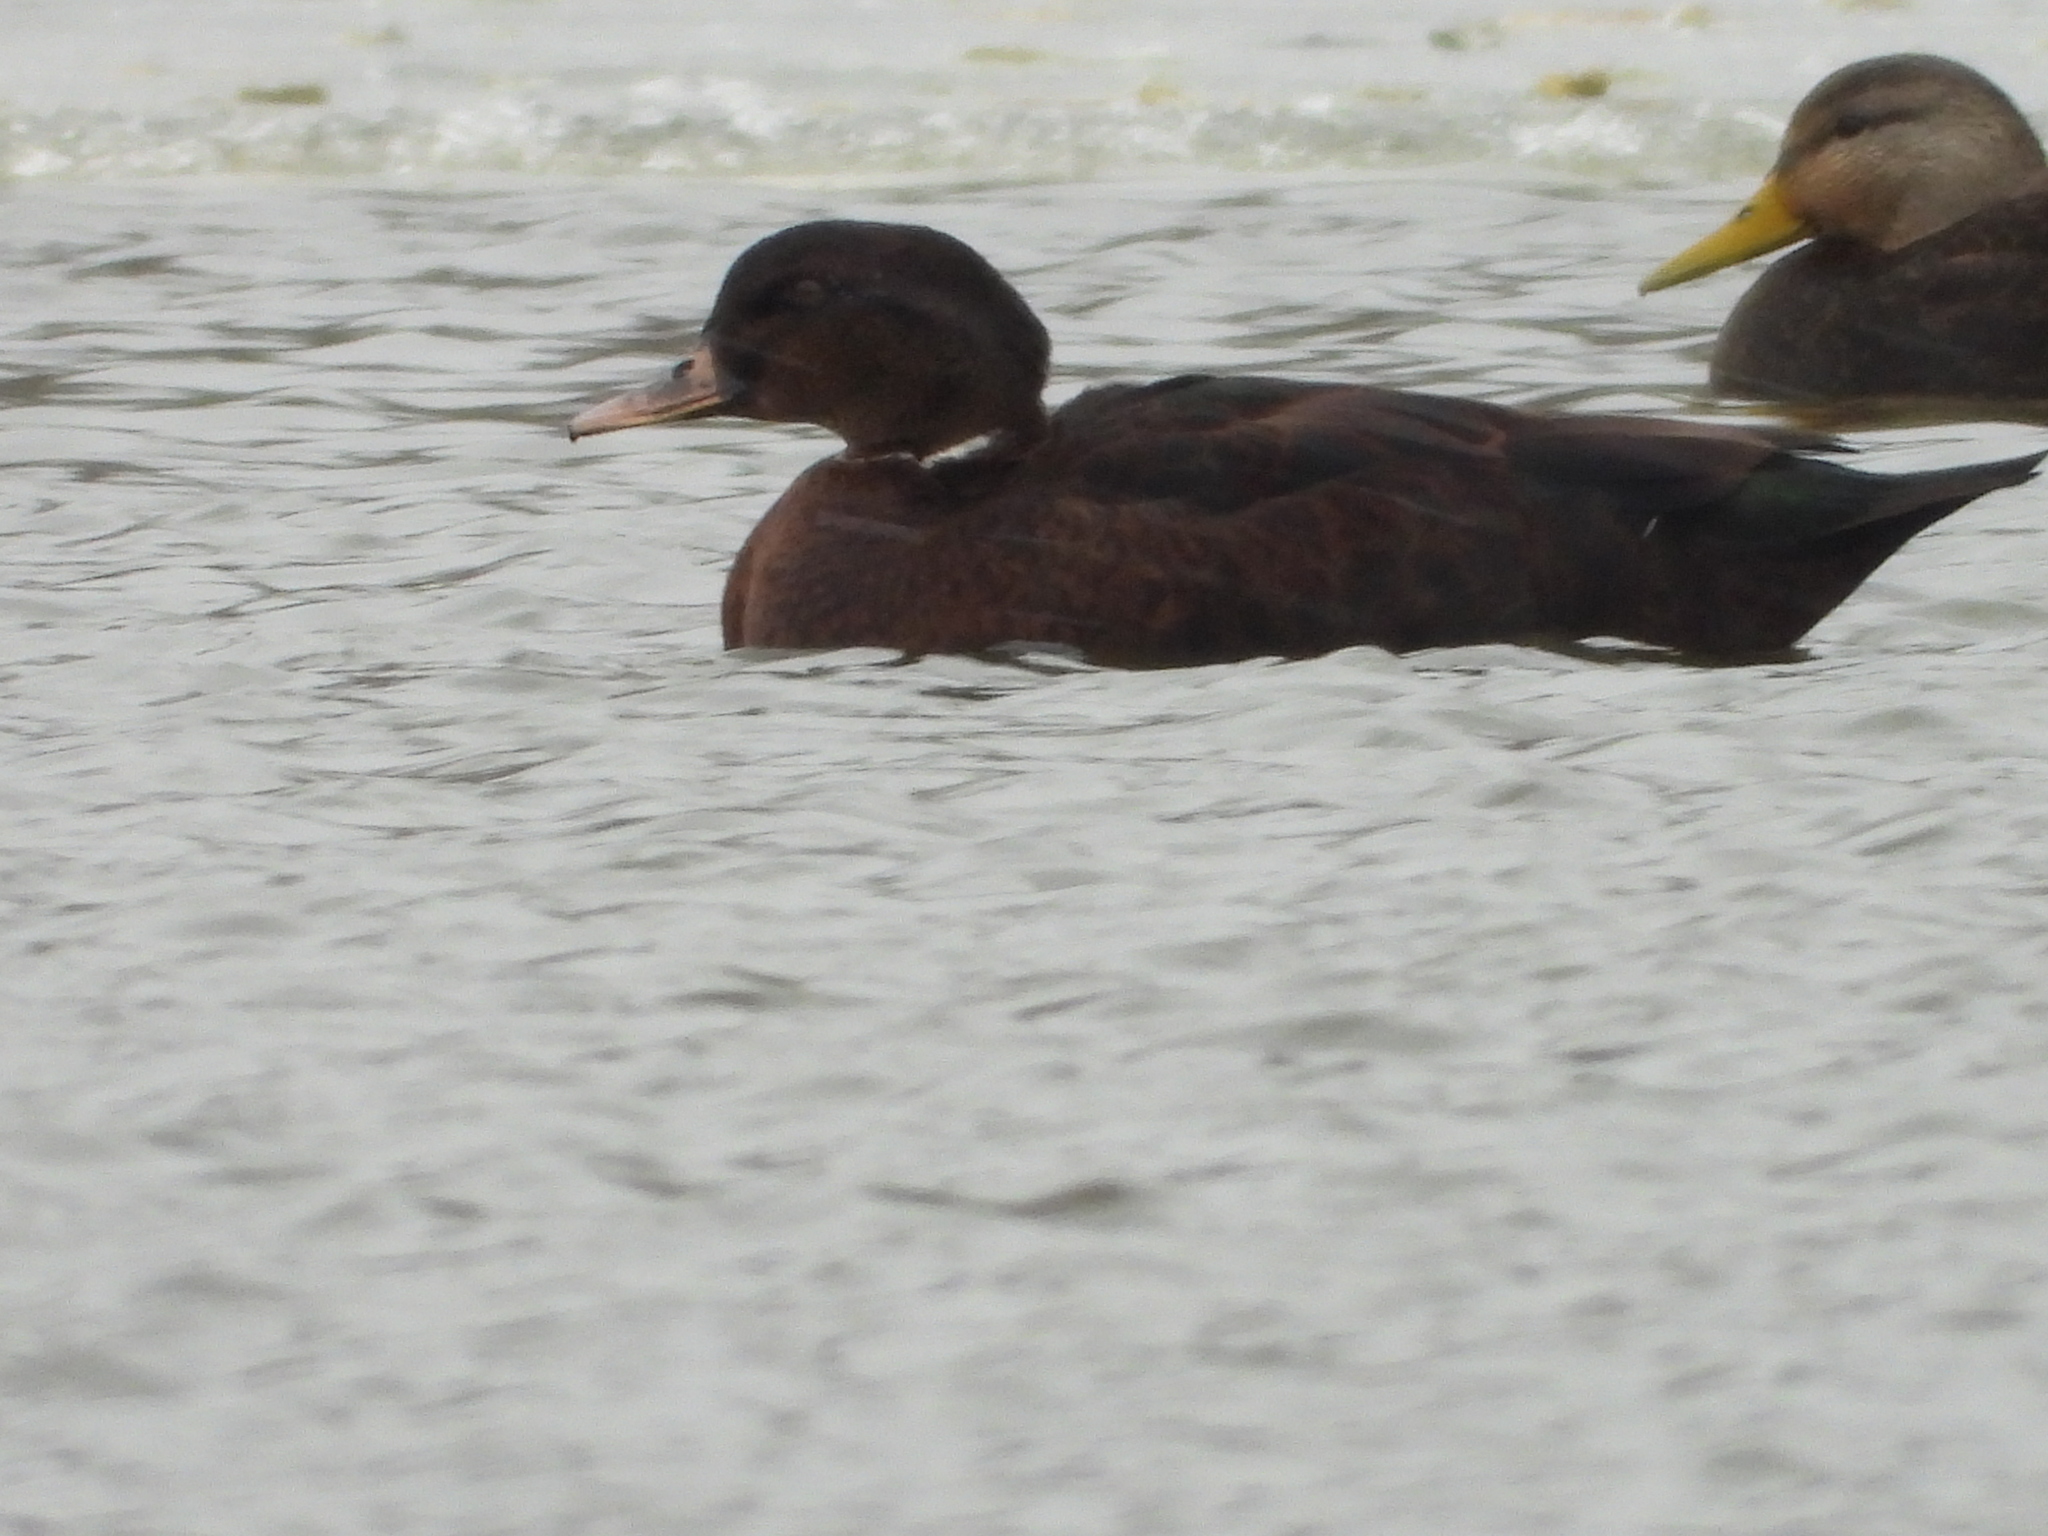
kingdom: Animalia
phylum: Chordata
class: Aves
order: Anseriformes
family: Anatidae
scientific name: Anatidae
